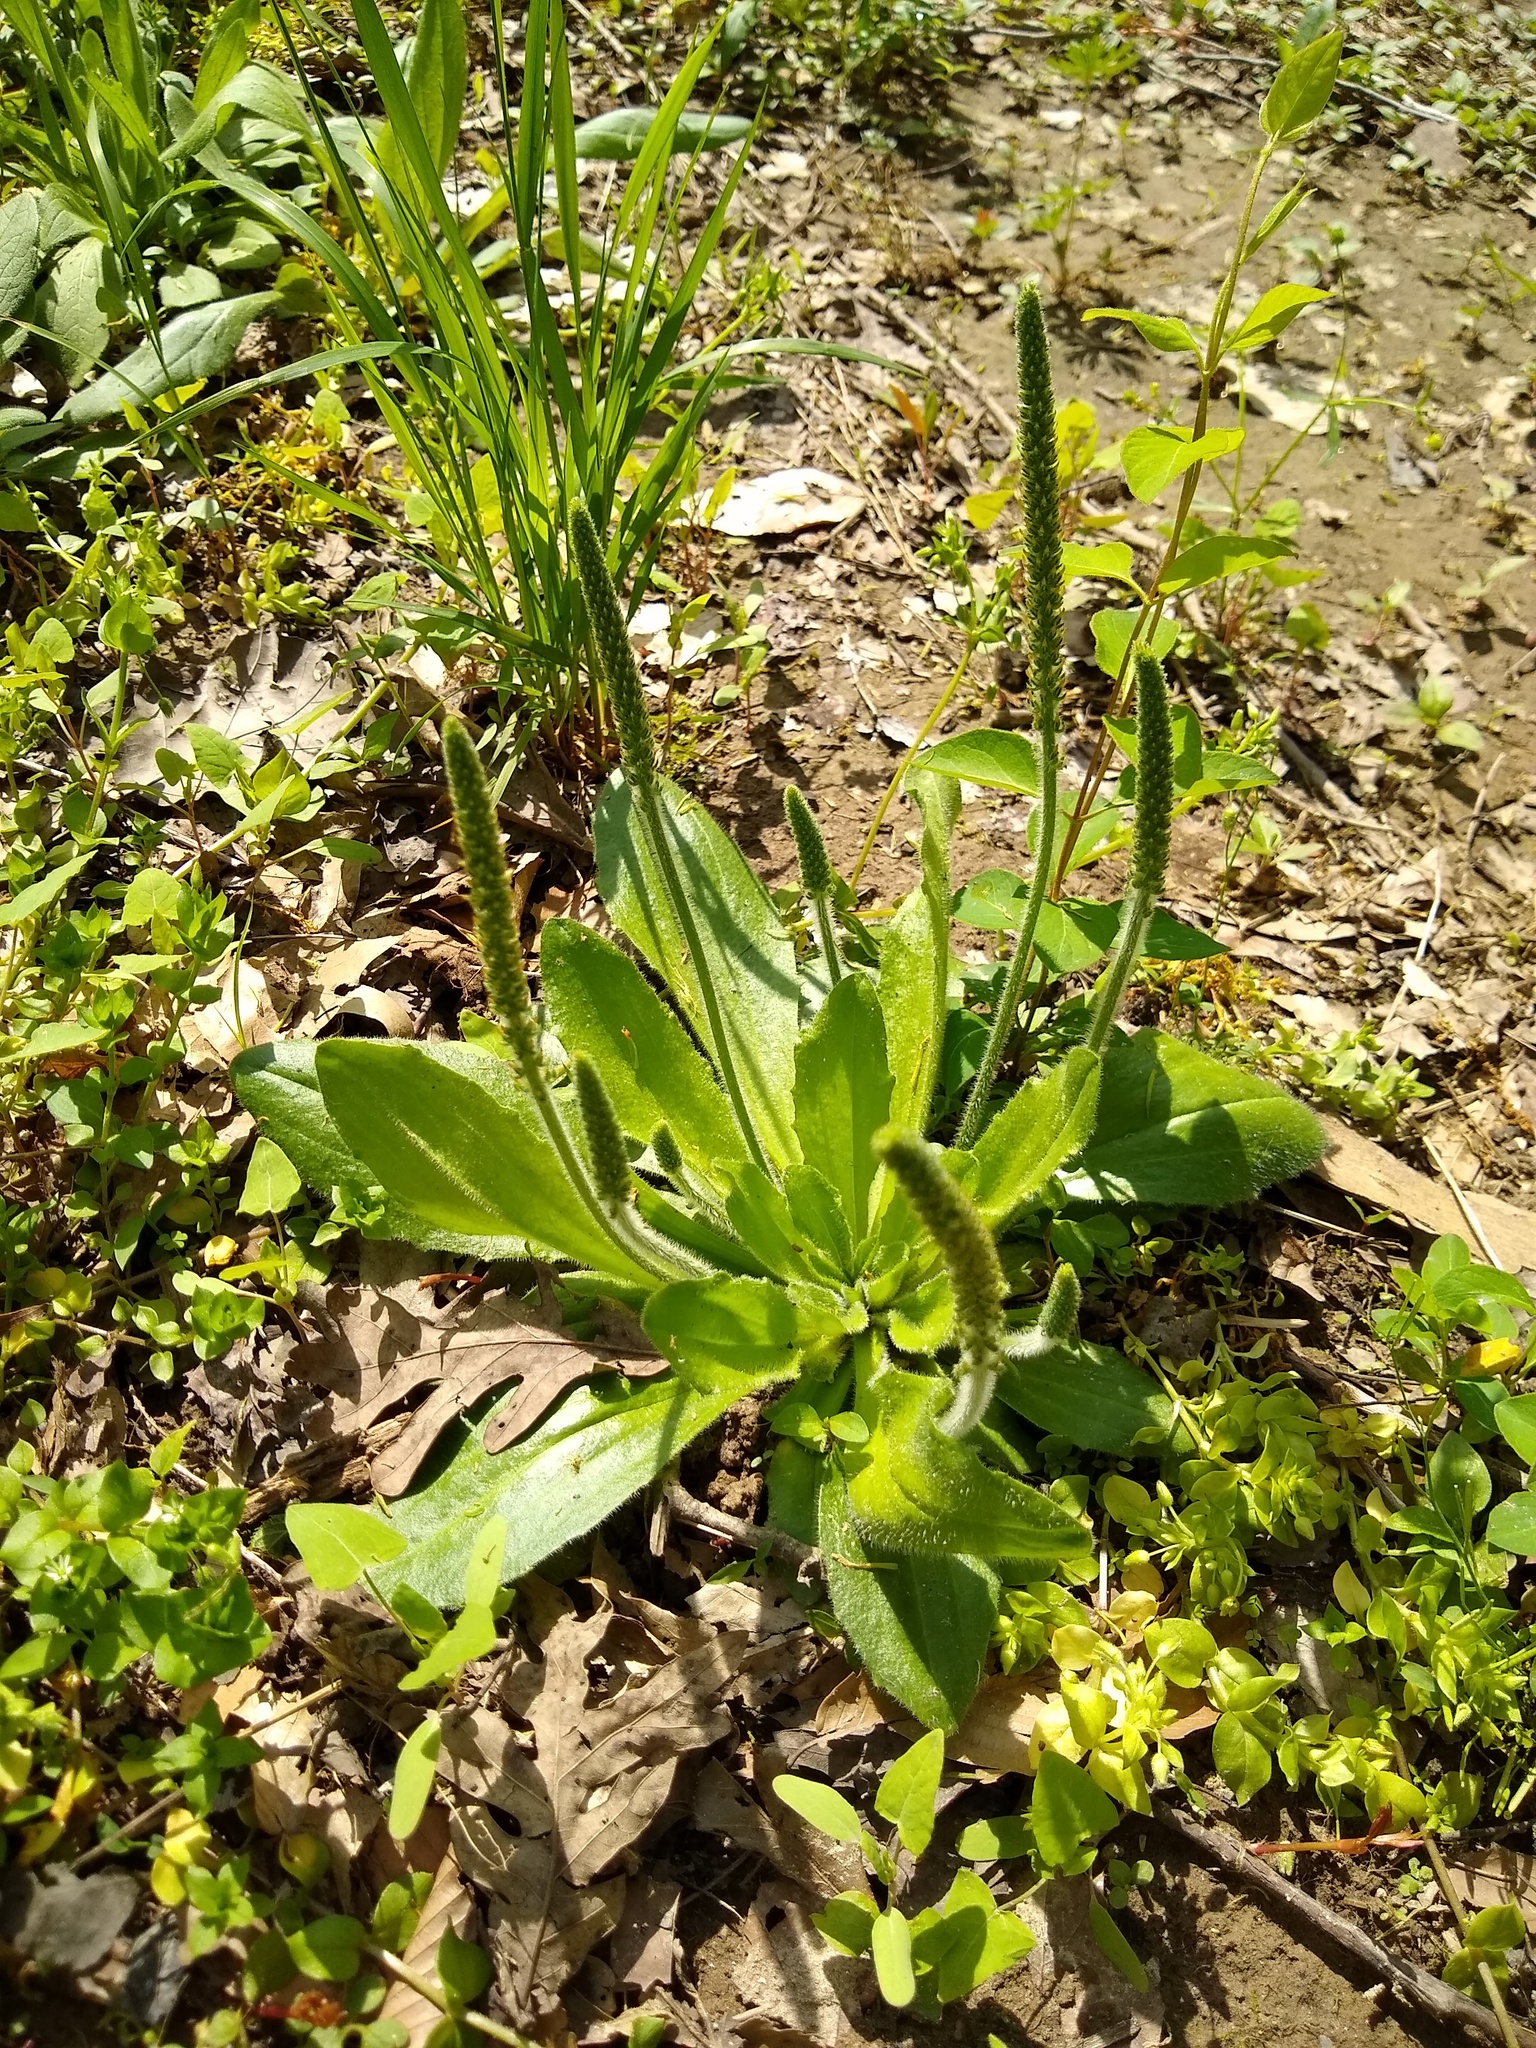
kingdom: Plantae
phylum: Tracheophyta
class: Magnoliopsida
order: Lamiales
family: Plantaginaceae
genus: Plantago
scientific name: Plantago virginica
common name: Hoary plantain
